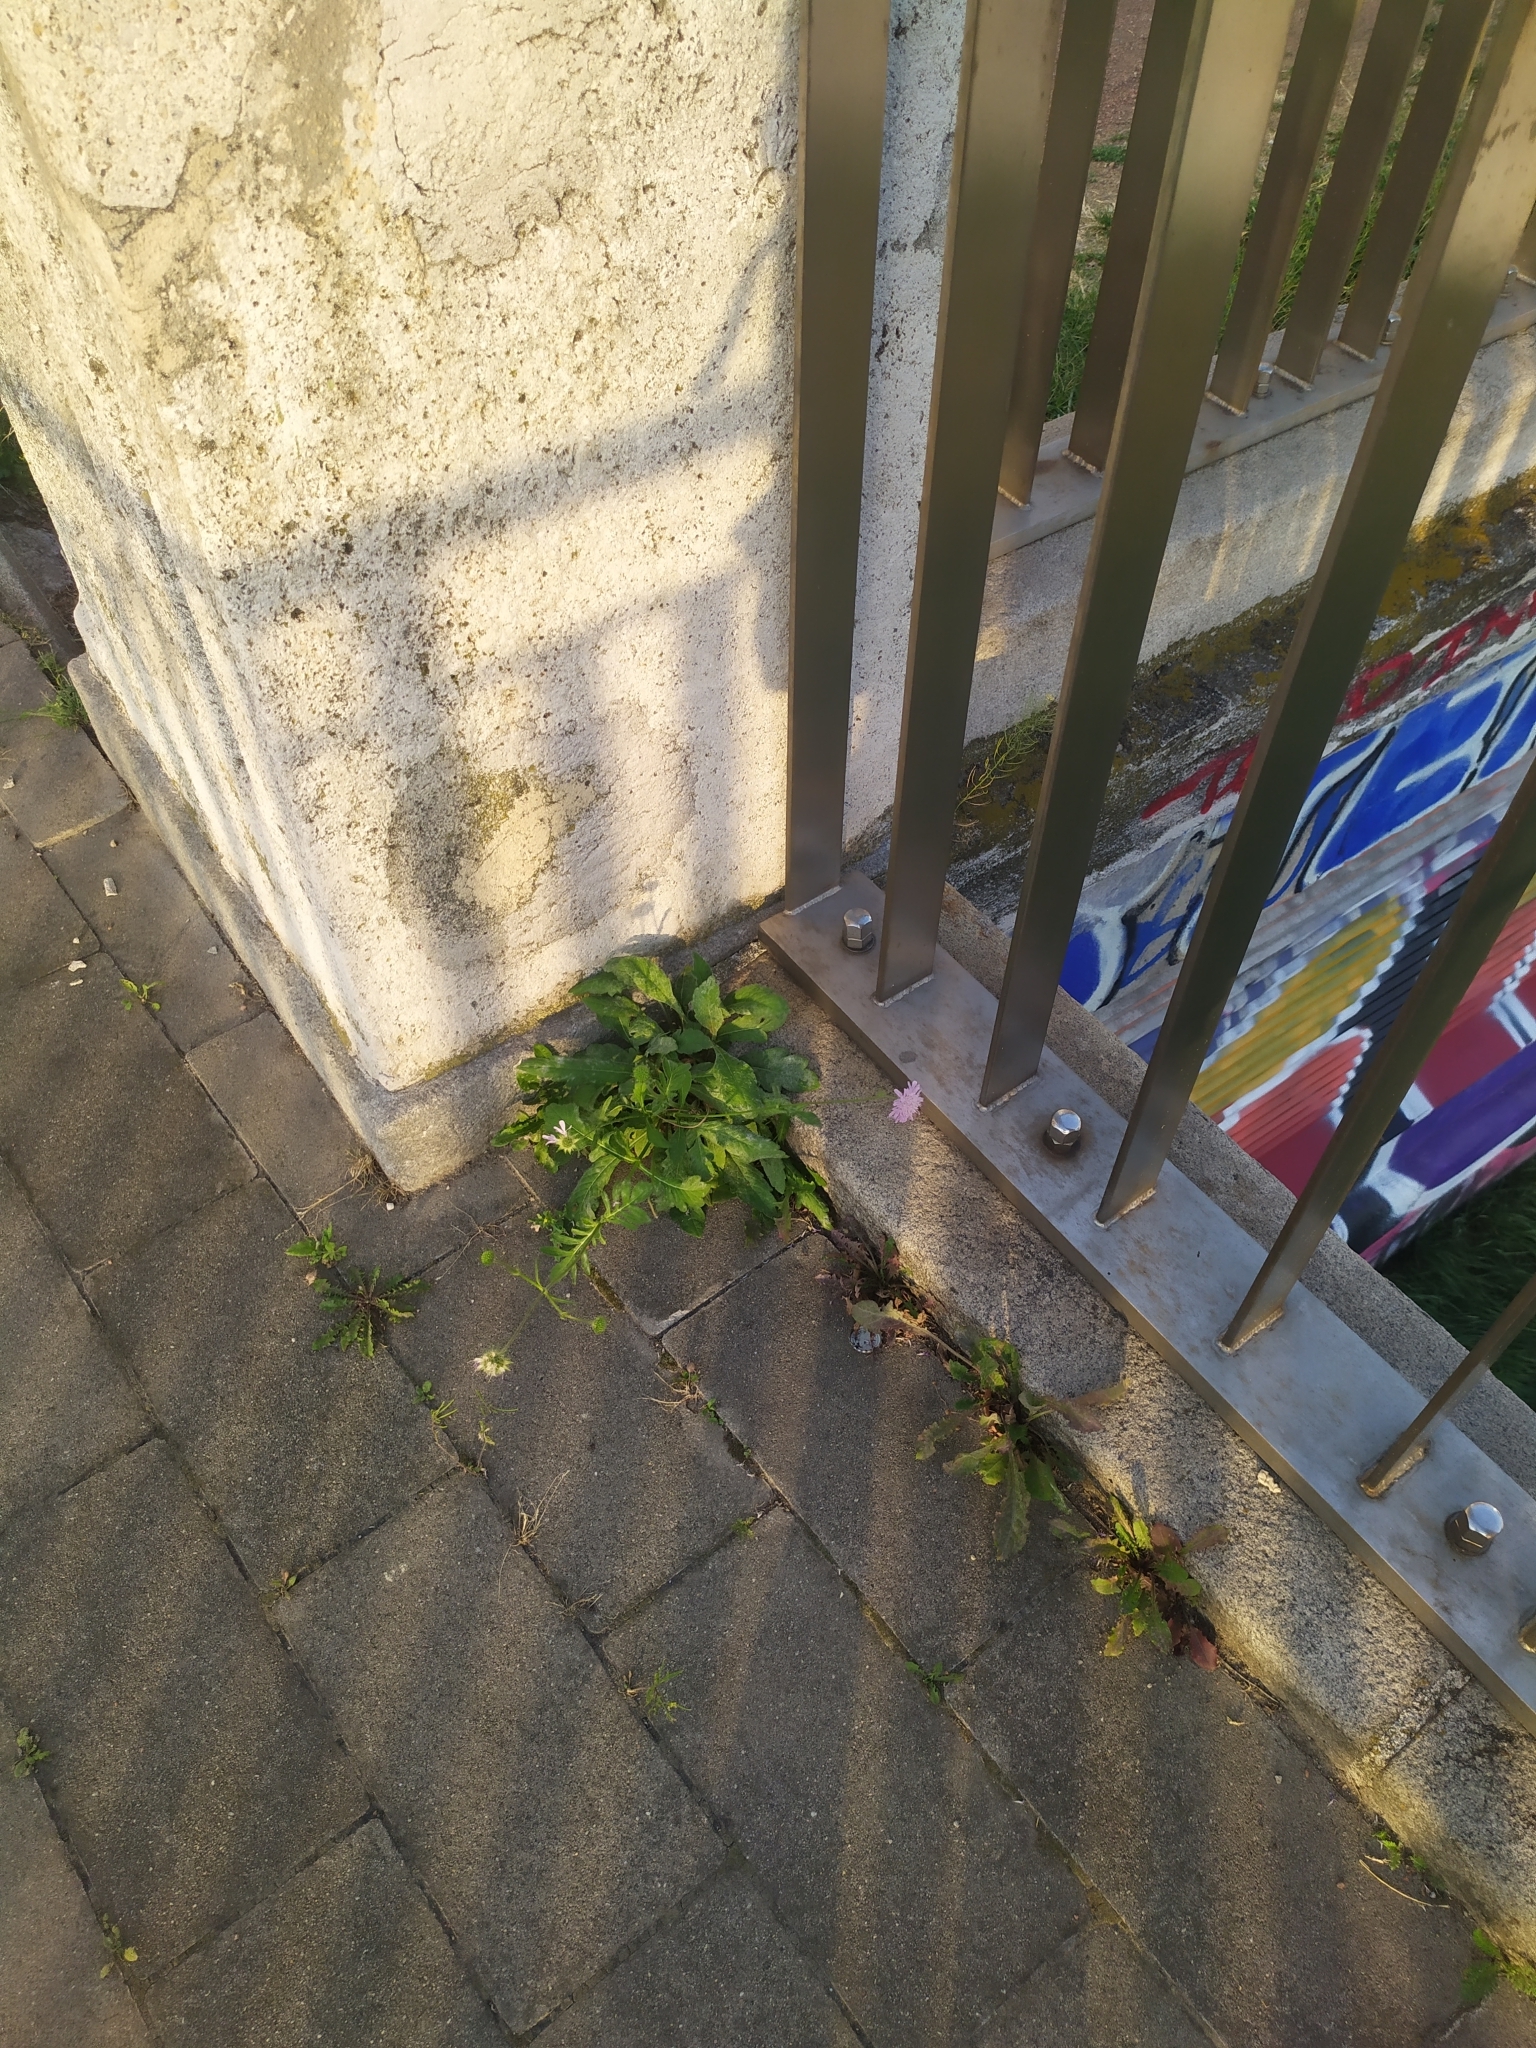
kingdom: Plantae
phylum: Tracheophyta
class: Magnoliopsida
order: Dipsacales
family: Caprifoliaceae
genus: Knautia
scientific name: Knautia arvensis
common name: Field scabiosa
